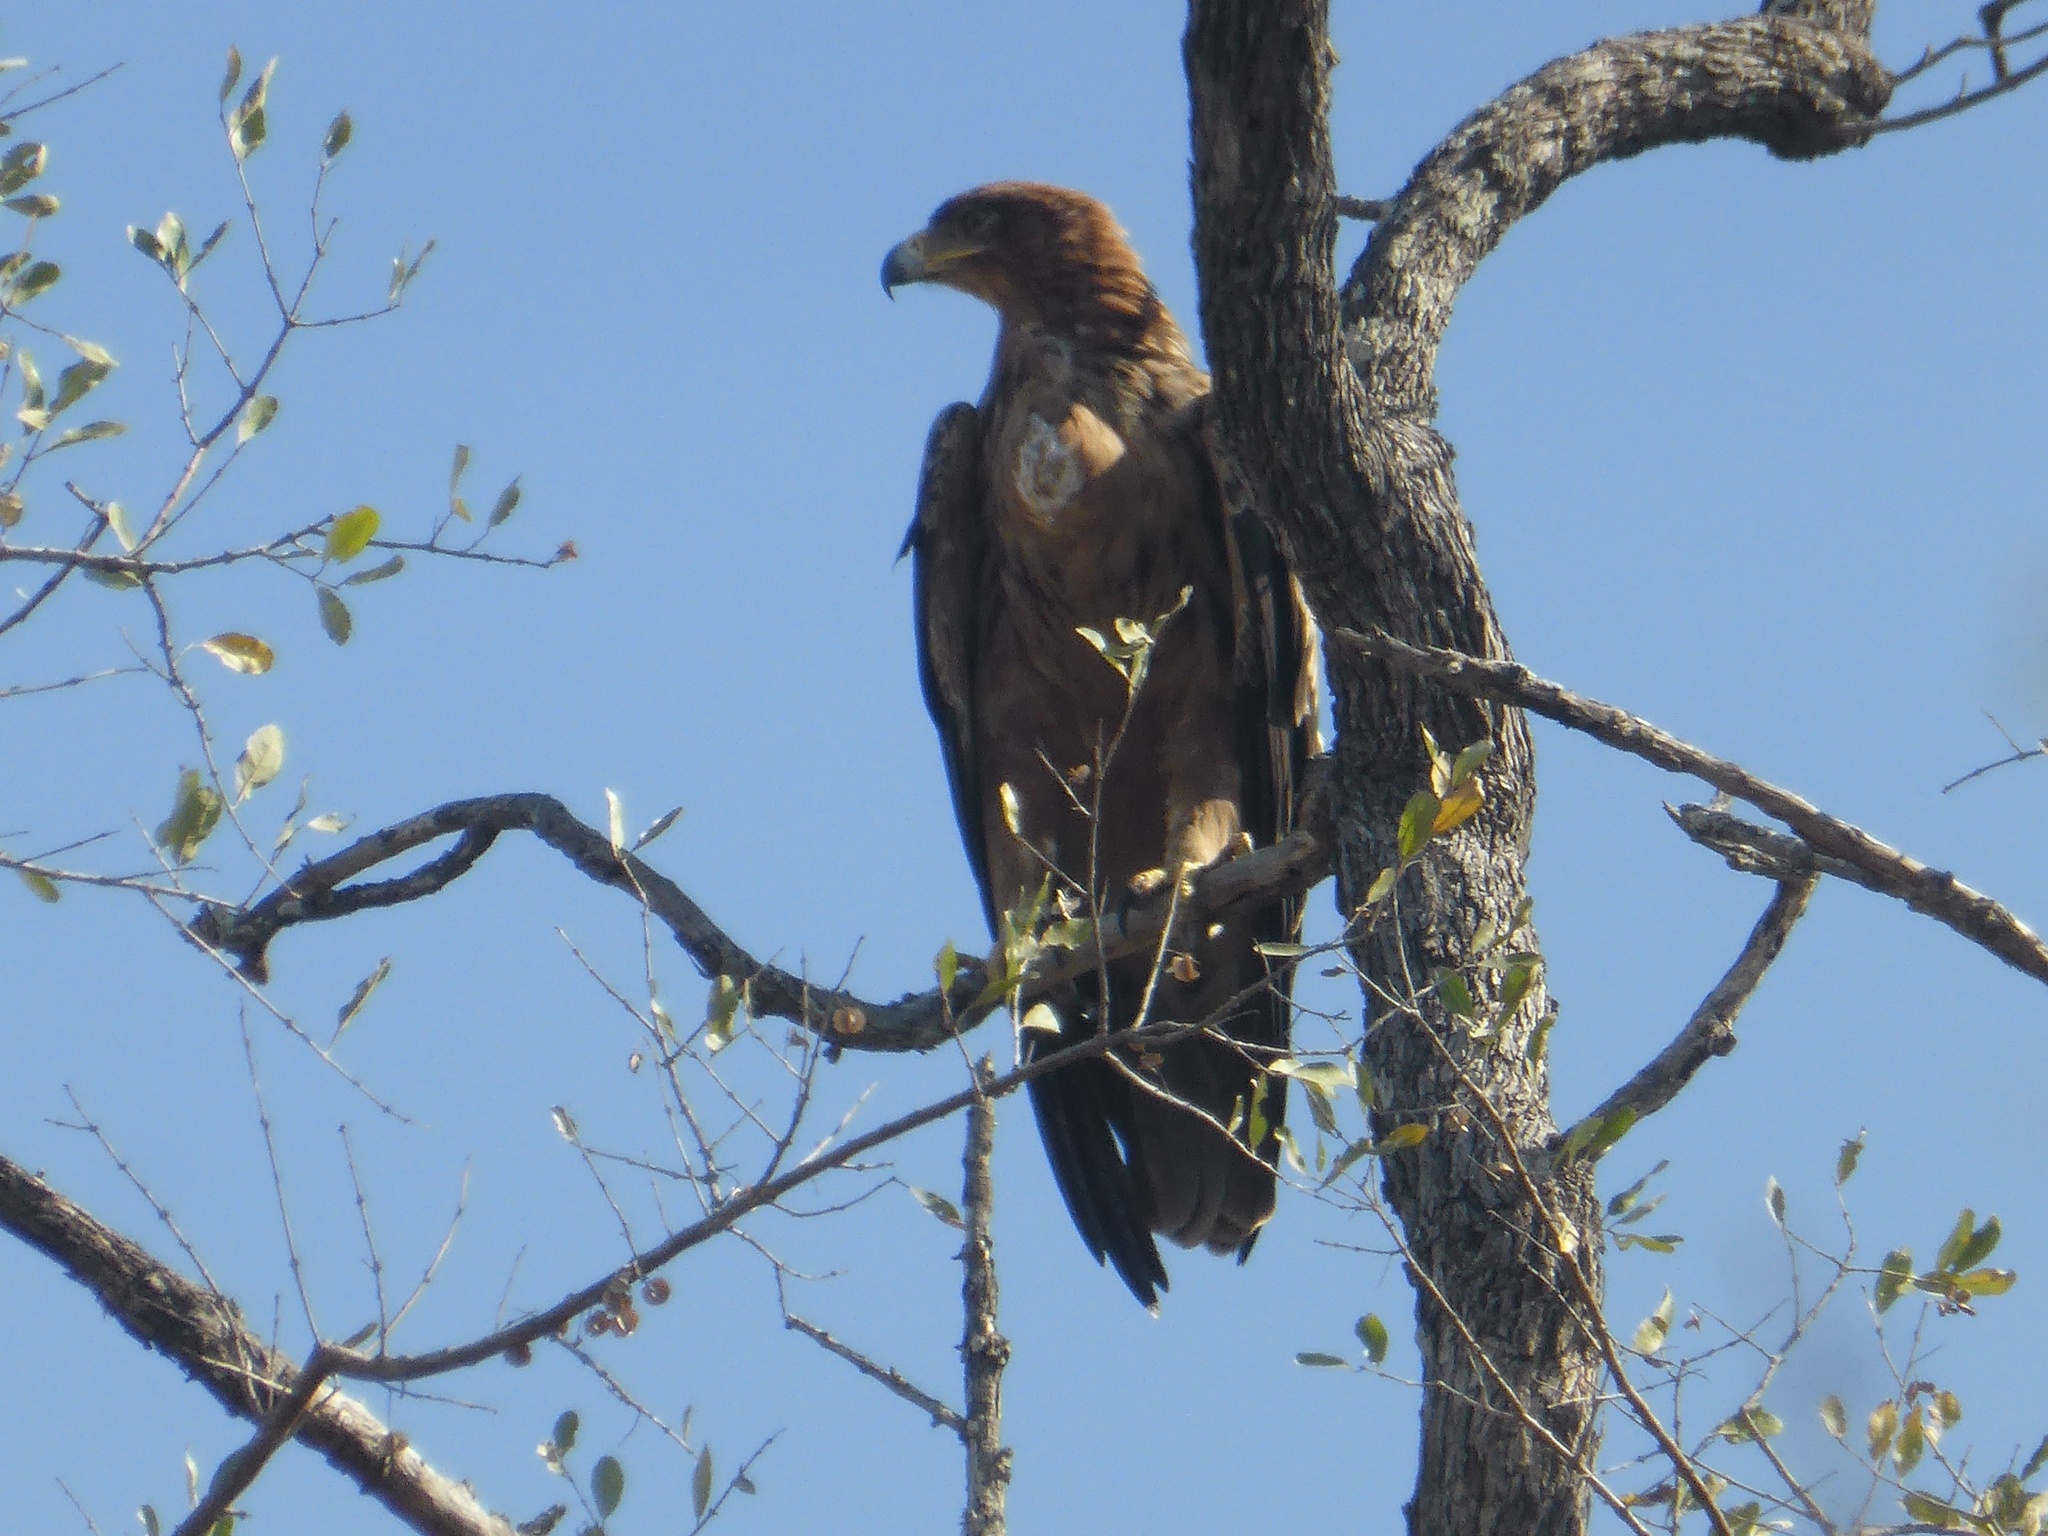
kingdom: Animalia
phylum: Chordata
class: Aves
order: Accipitriformes
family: Accipitridae
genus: Aquila
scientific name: Aquila rapax
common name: Tawny eagle
